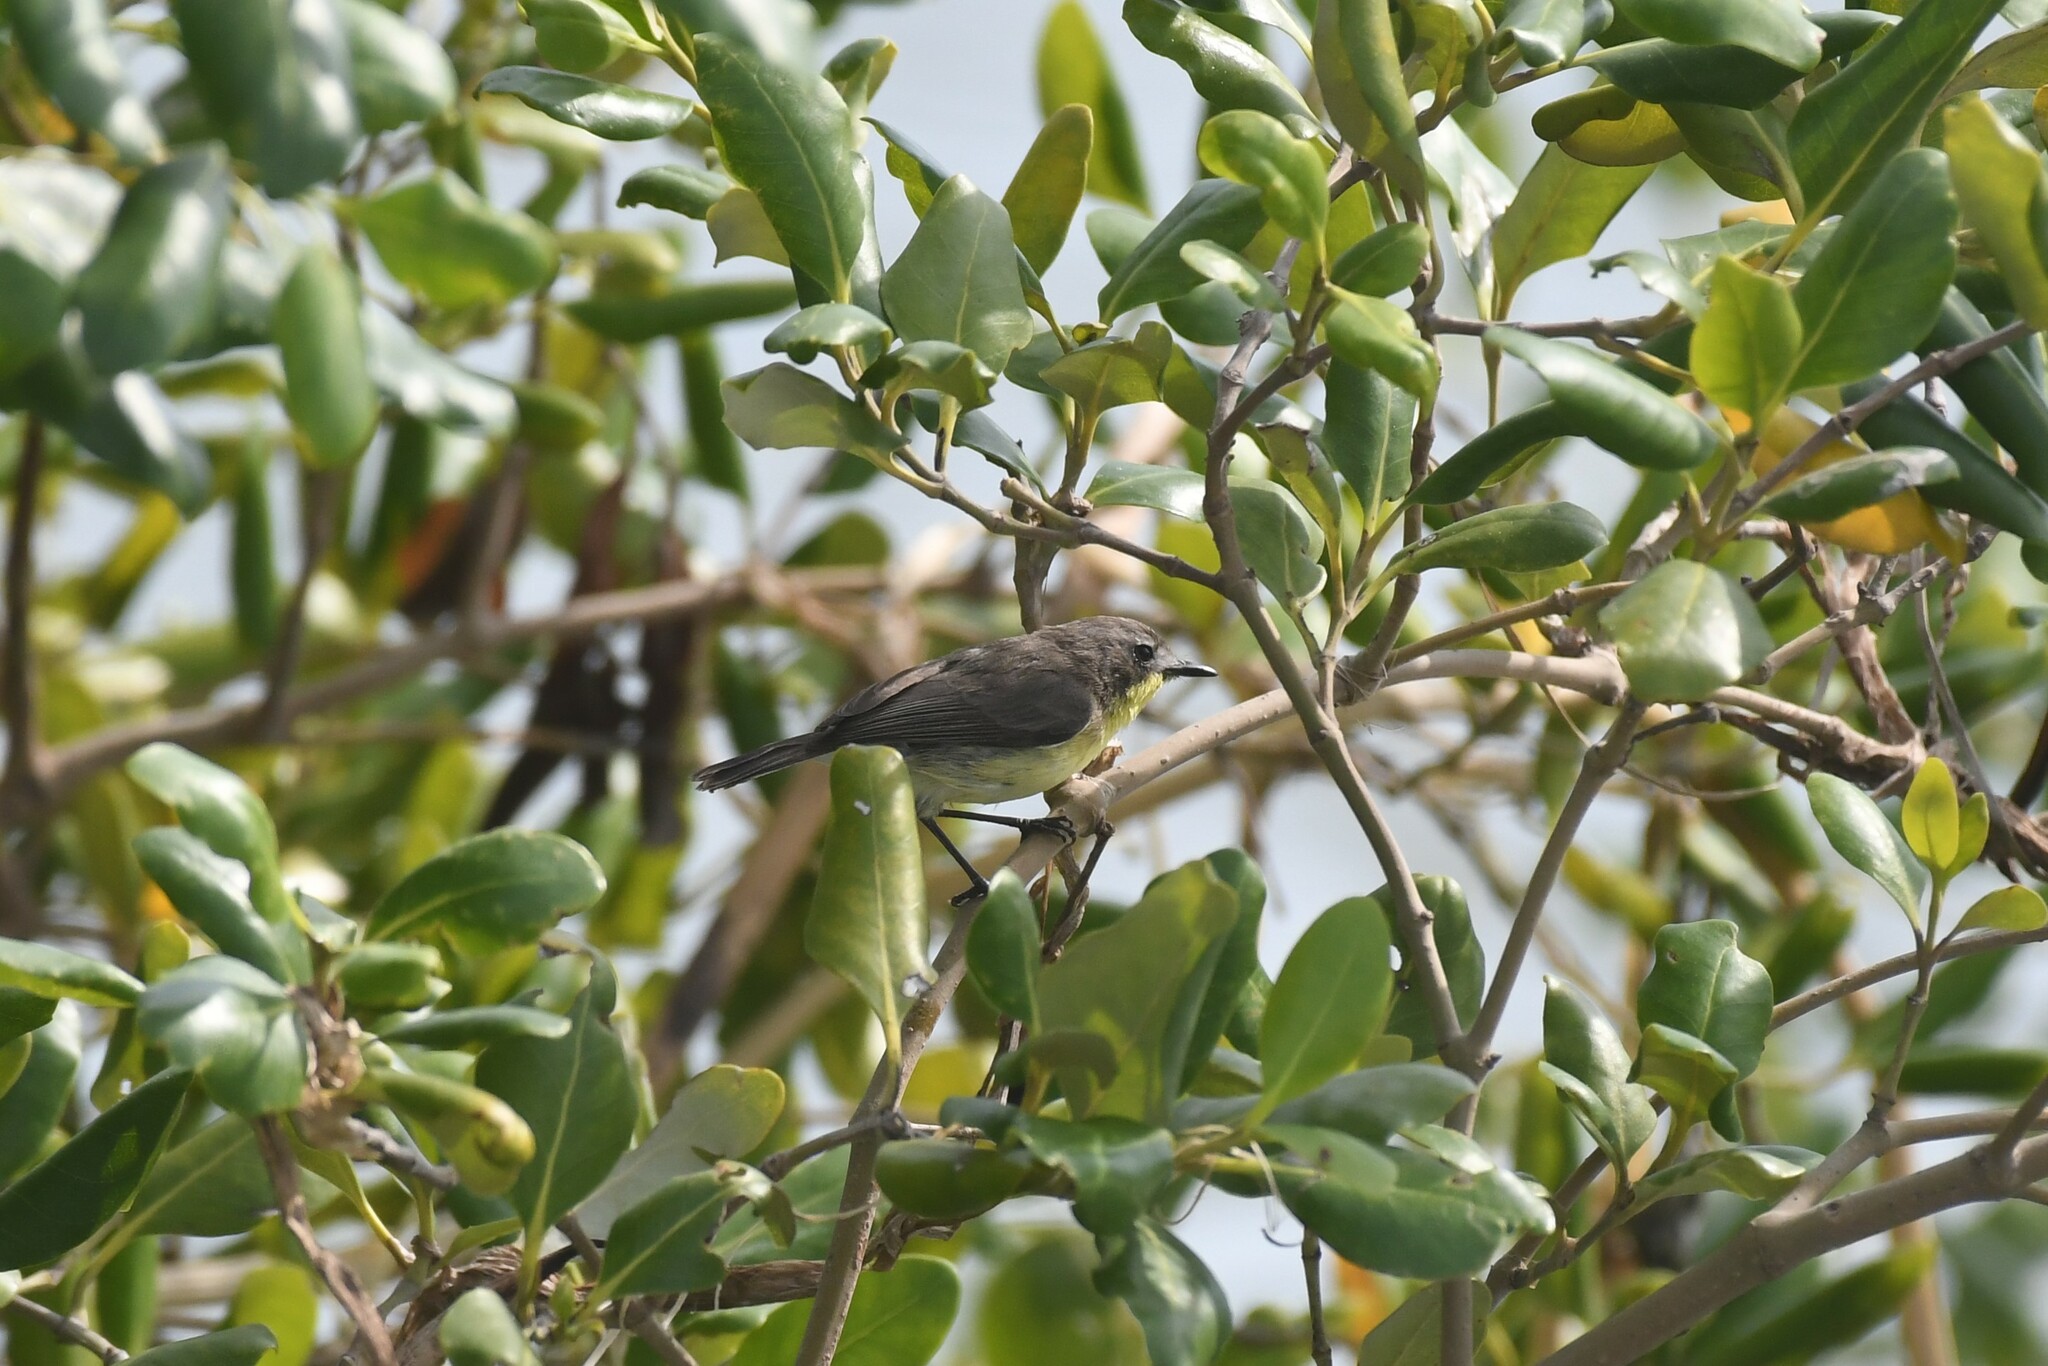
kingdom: Animalia
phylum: Chordata
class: Aves
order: Passeriformes
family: Acanthizidae
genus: Gerygone
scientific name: Gerygone sulphurea
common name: Golden-bellied gerygone
